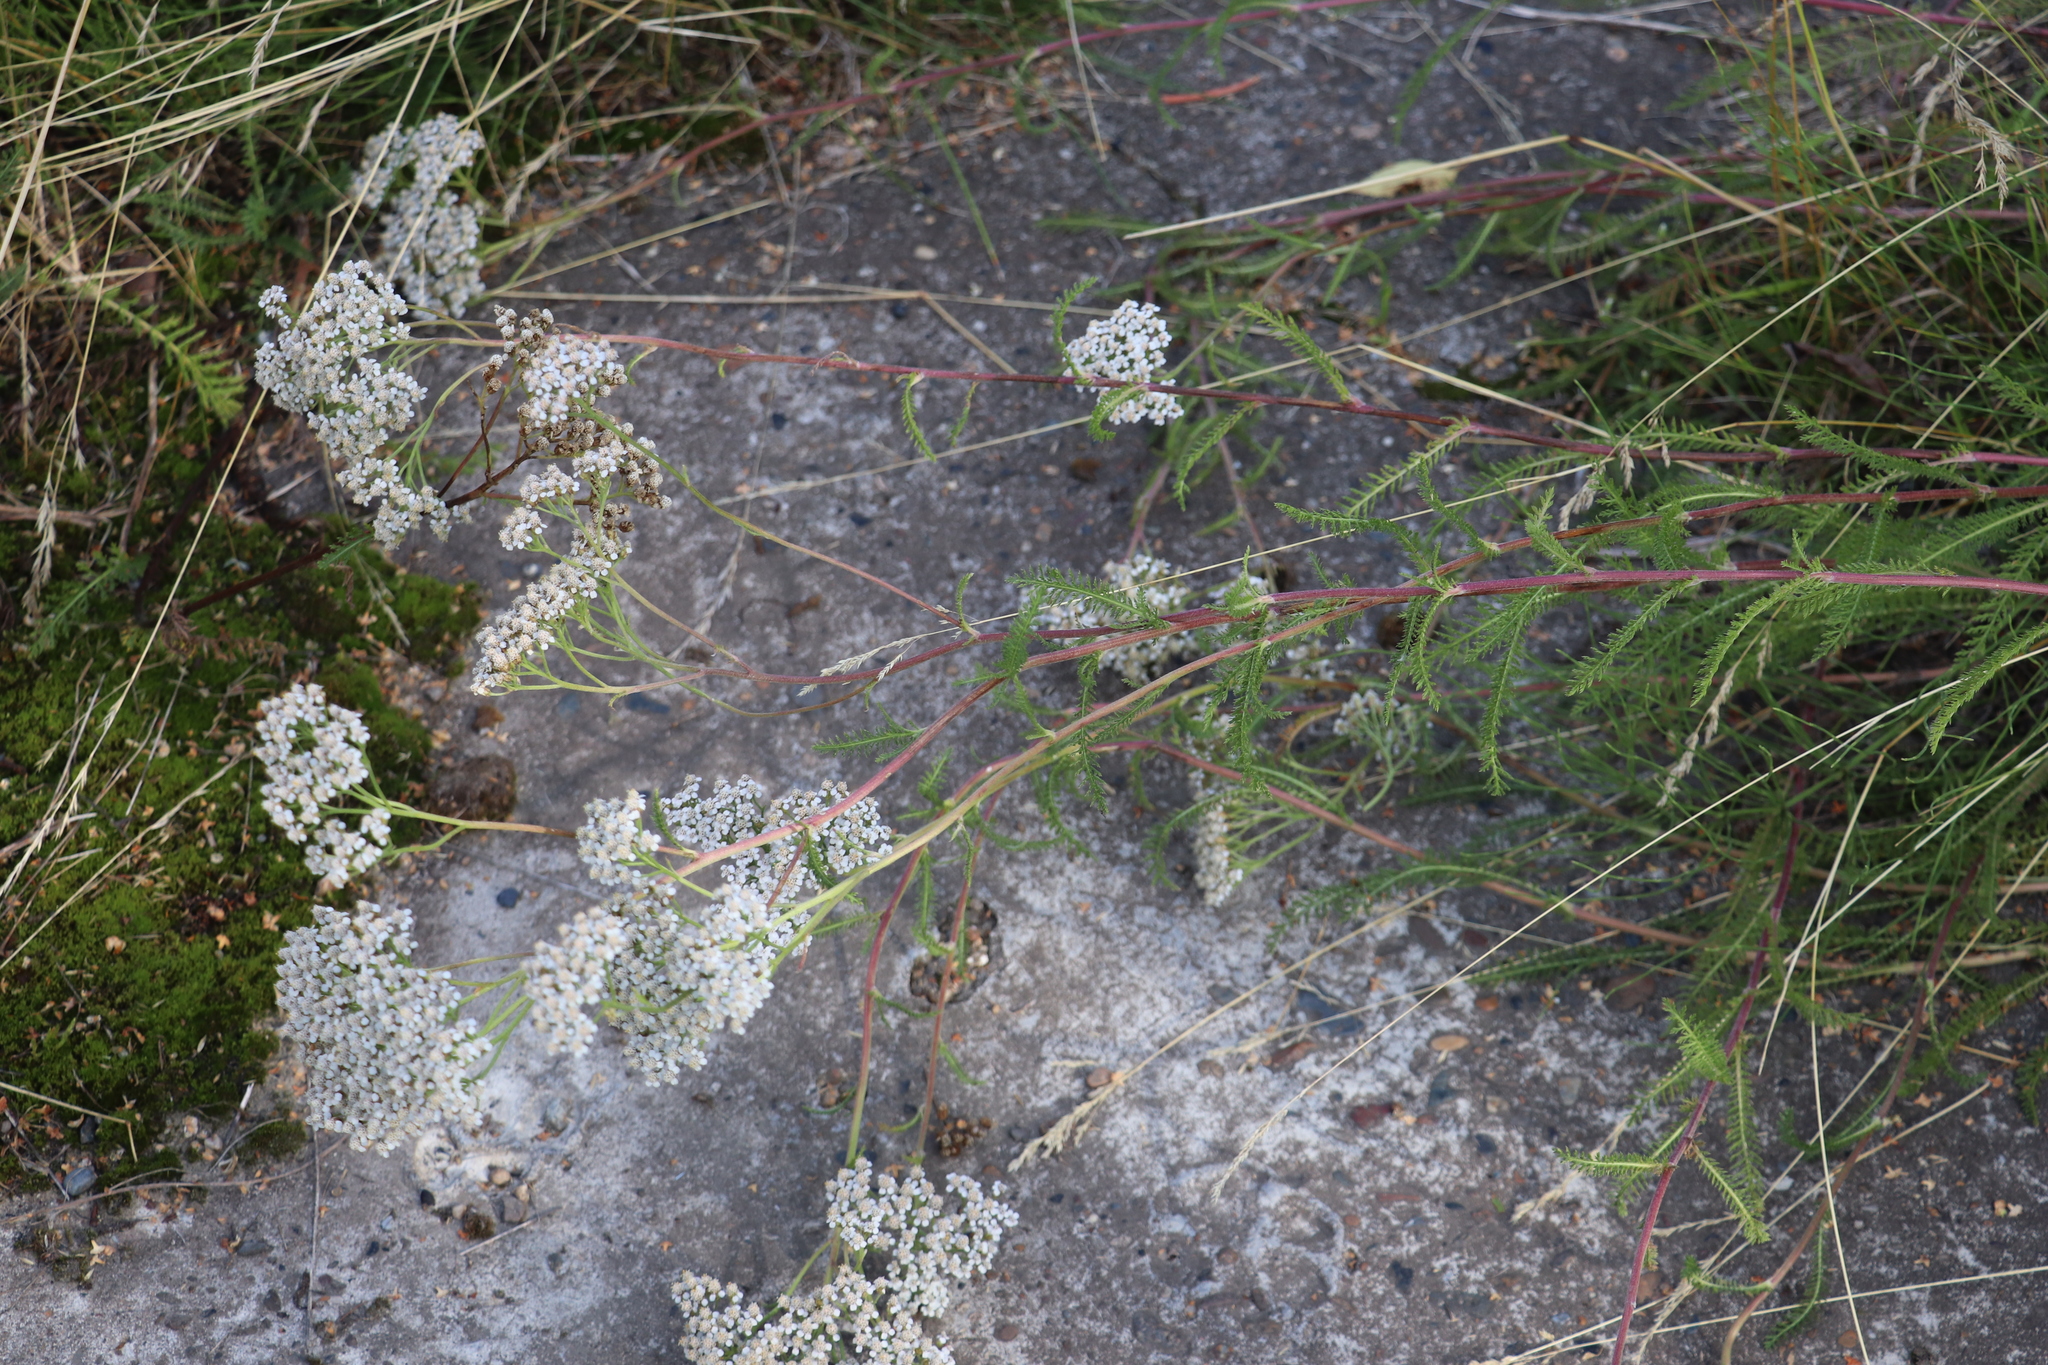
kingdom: Plantae
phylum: Tracheophyta
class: Magnoliopsida
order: Asterales
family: Asteraceae
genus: Achillea
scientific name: Achillea millefolium
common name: Yarrow
